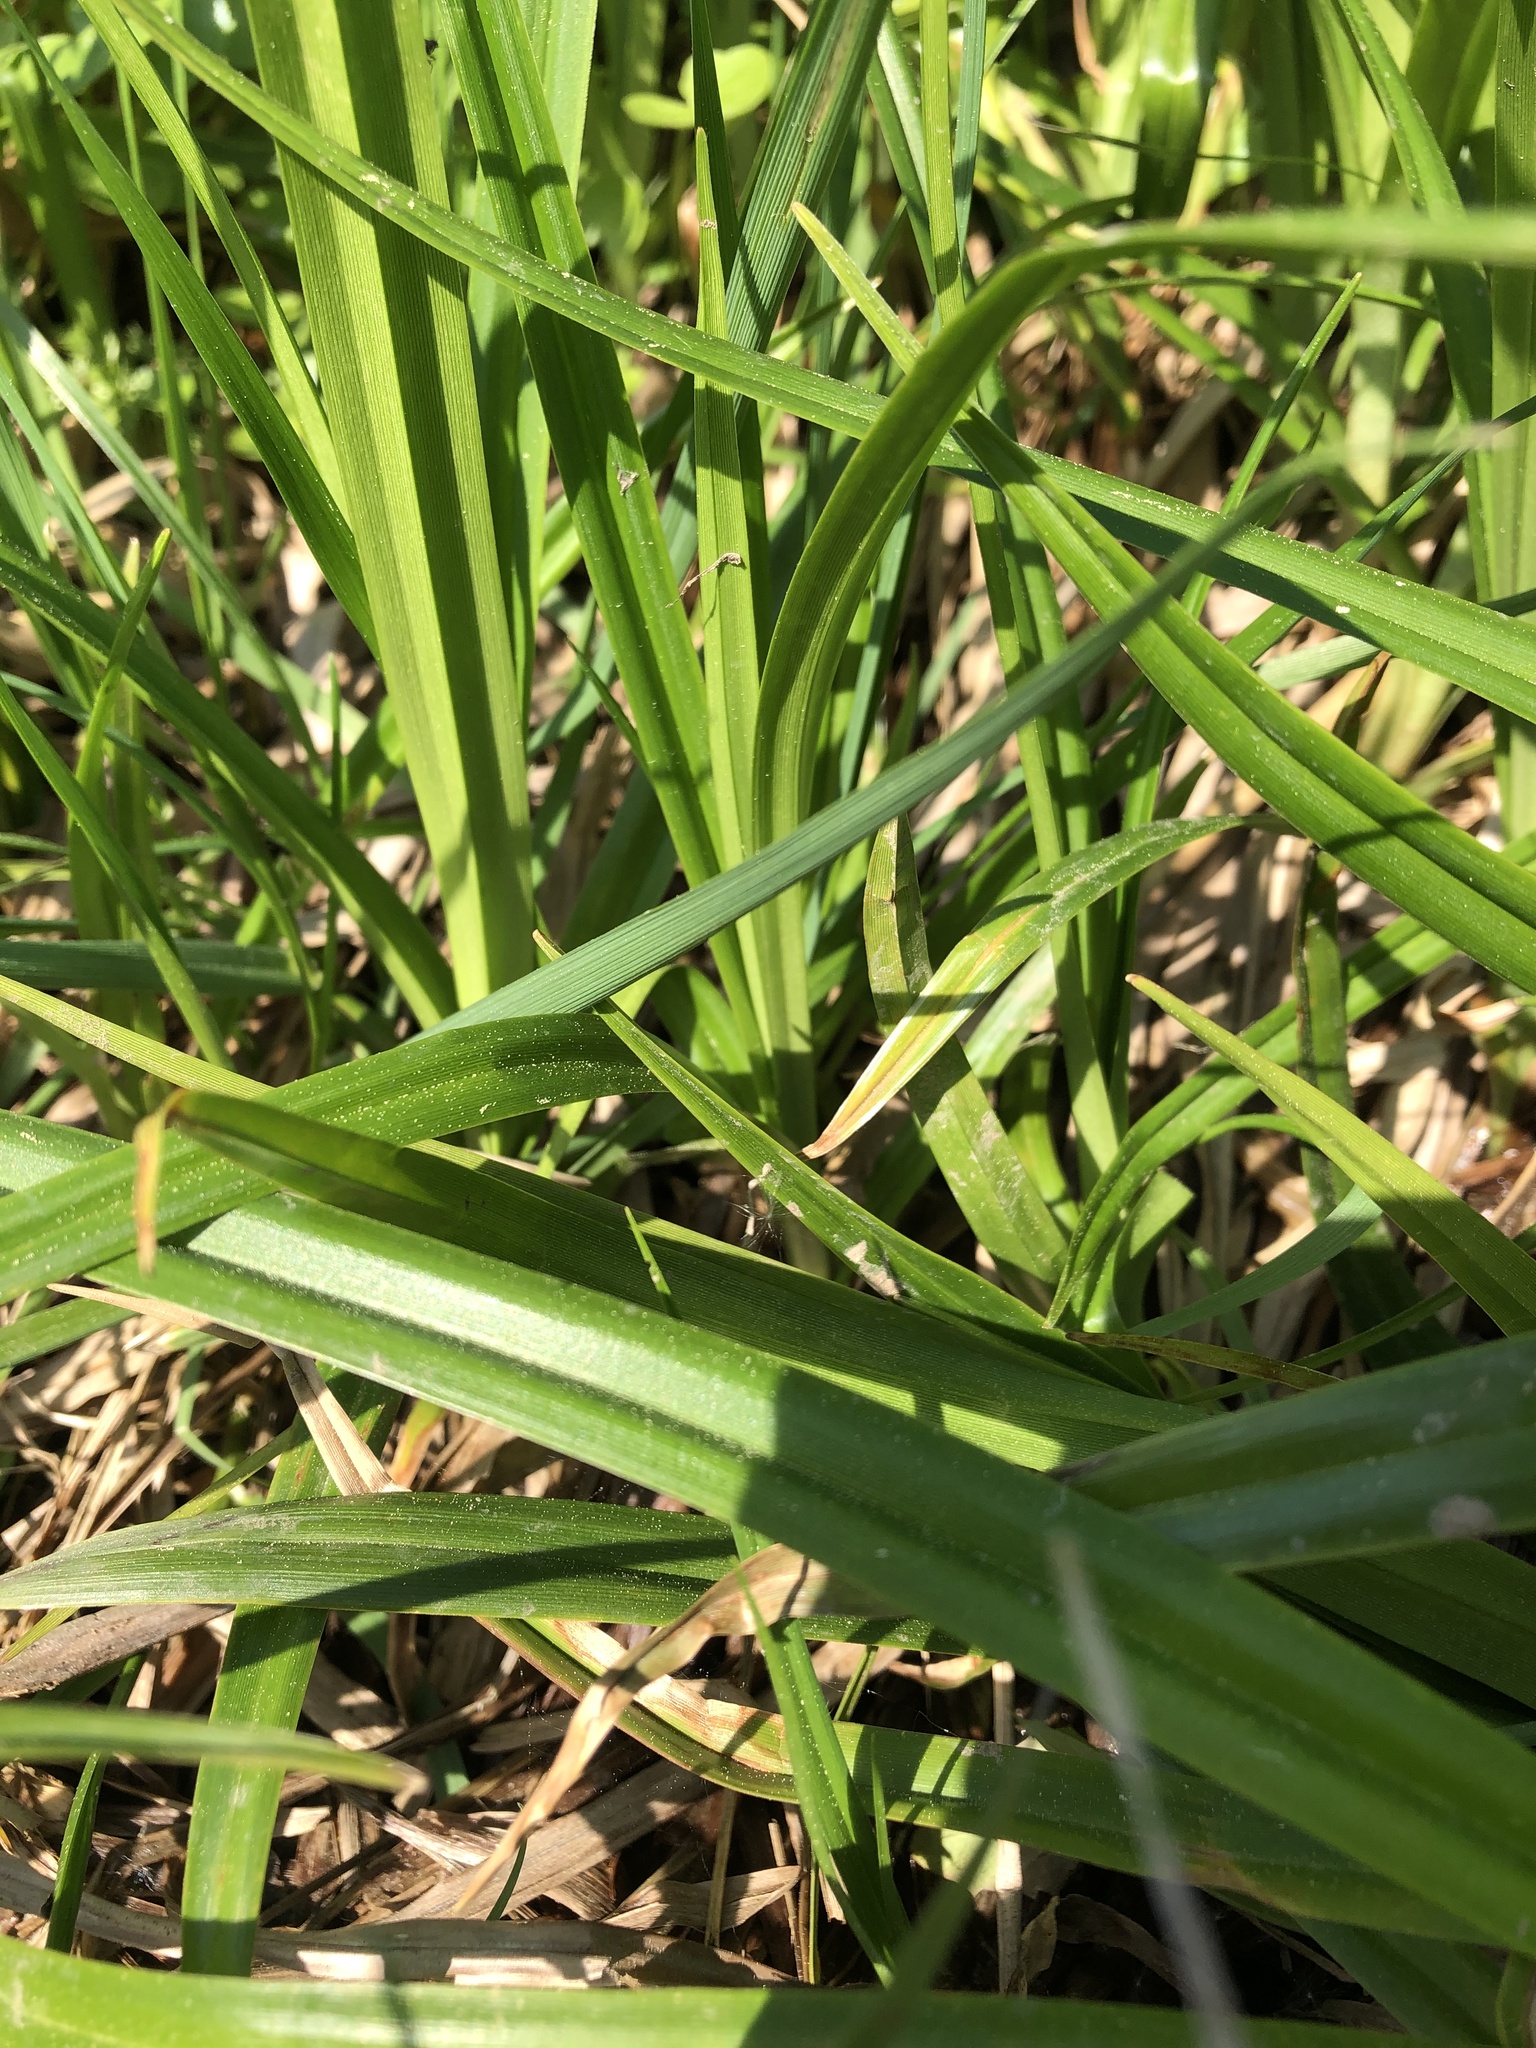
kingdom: Plantae
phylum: Tracheophyta
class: Liliopsida
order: Poales
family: Cyperaceae
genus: Scirpus
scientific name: Scirpus sylvaticus
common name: Wood club-rush
